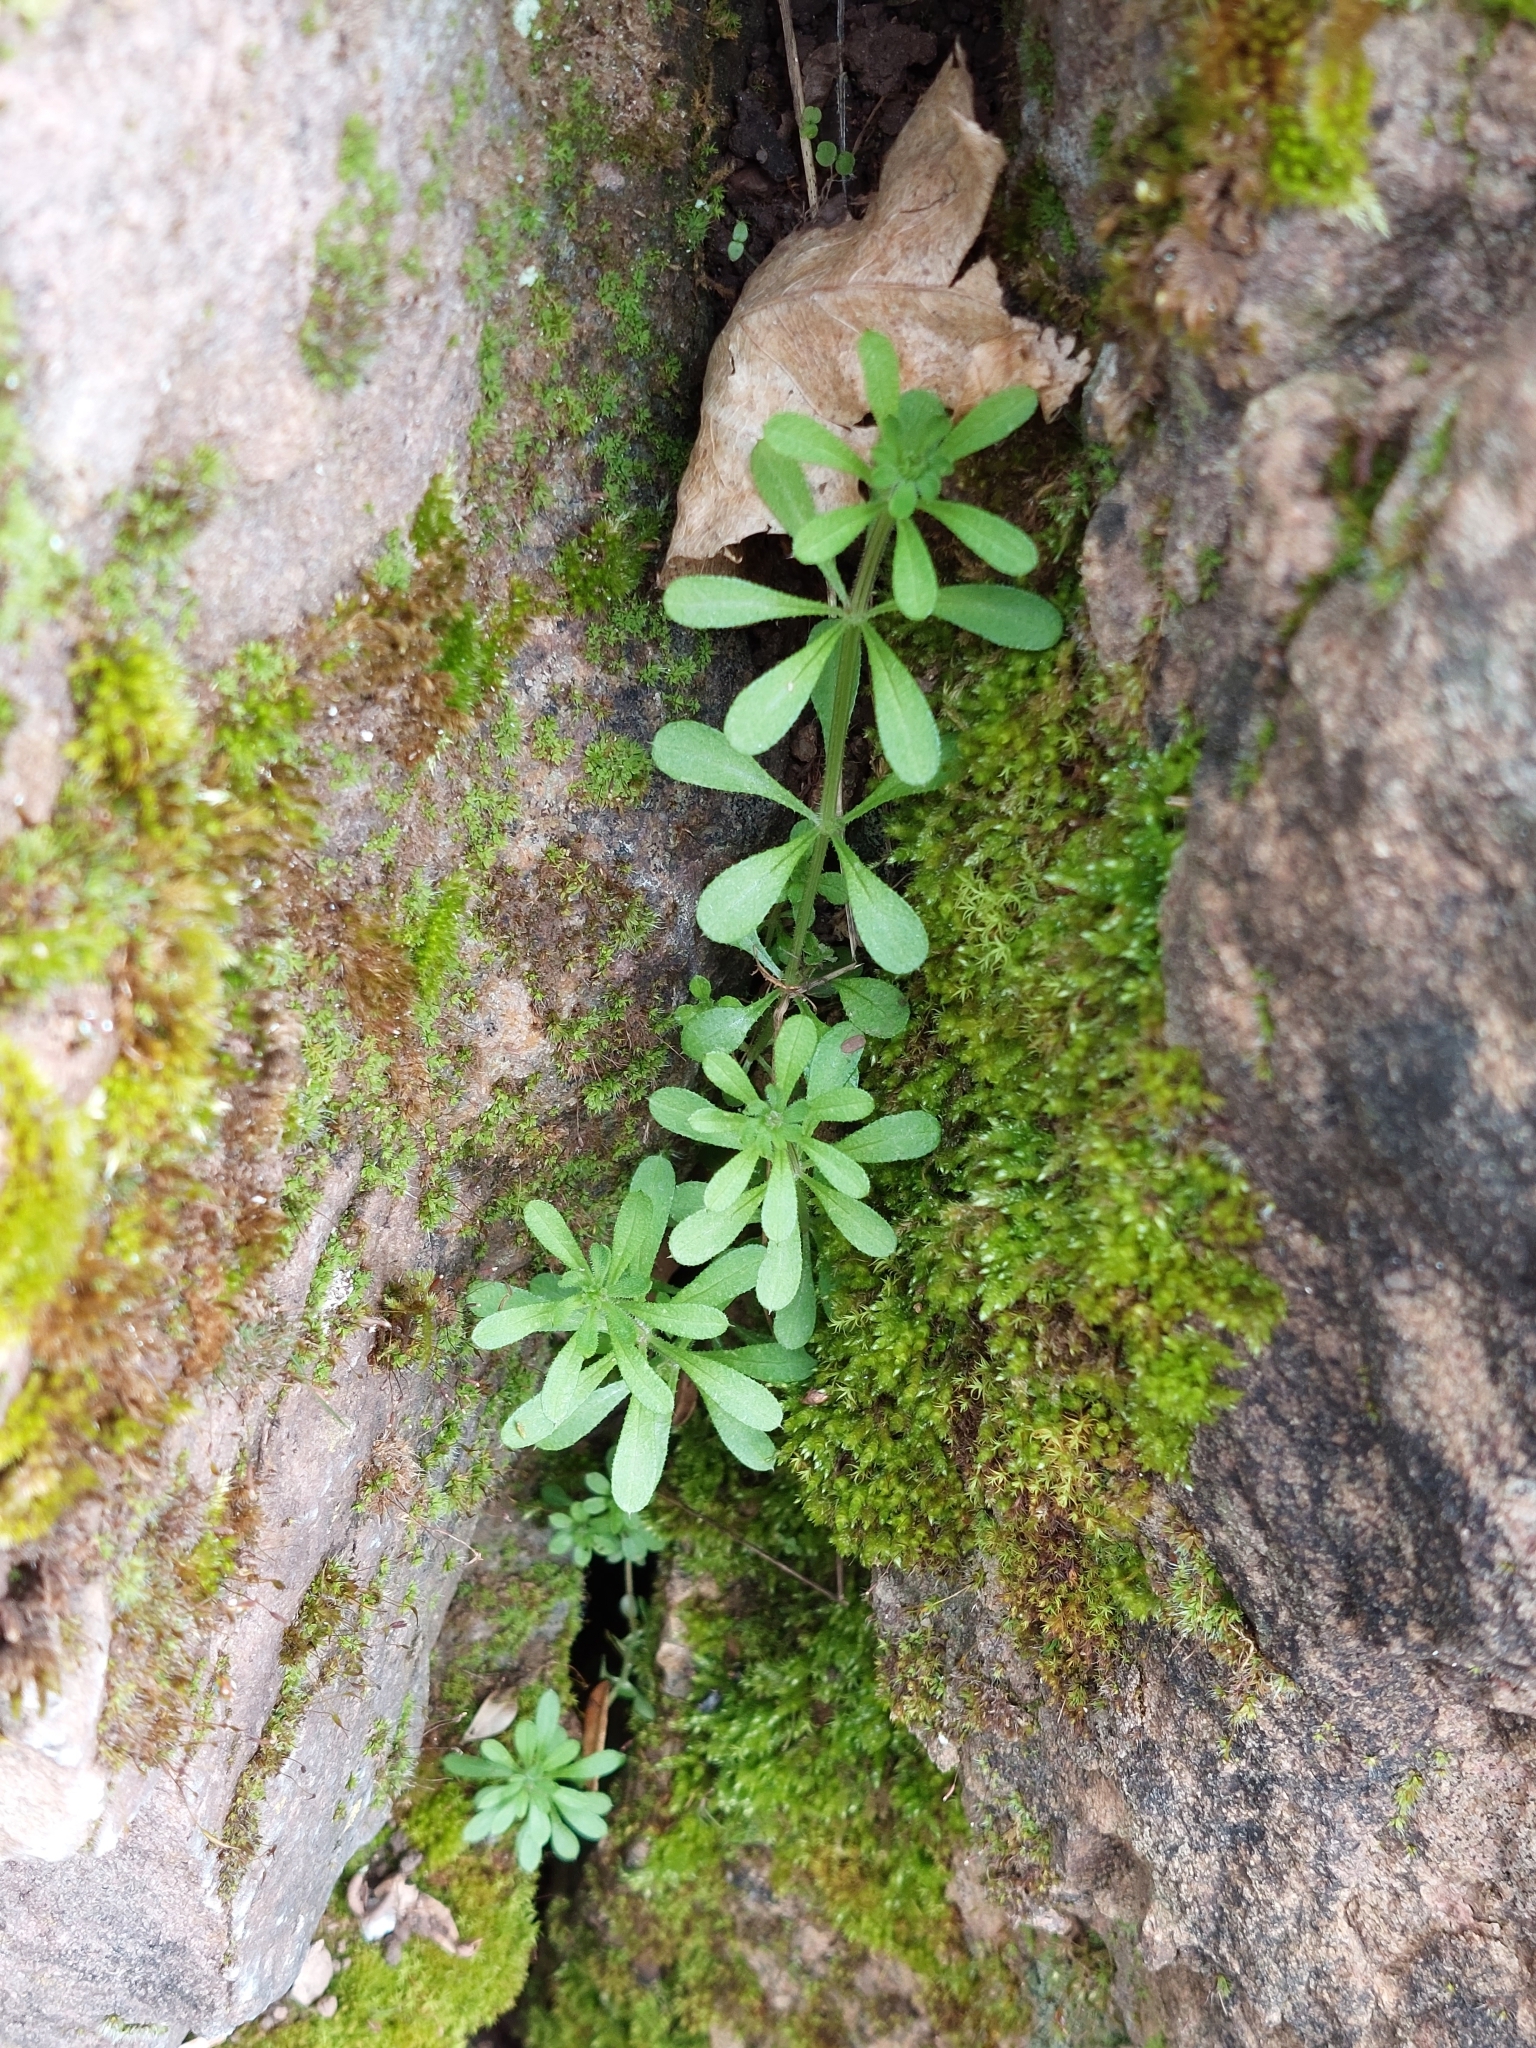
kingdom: Plantae
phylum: Tracheophyta
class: Magnoliopsida
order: Gentianales
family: Rubiaceae
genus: Galium
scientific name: Galium aparine
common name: Cleavers
